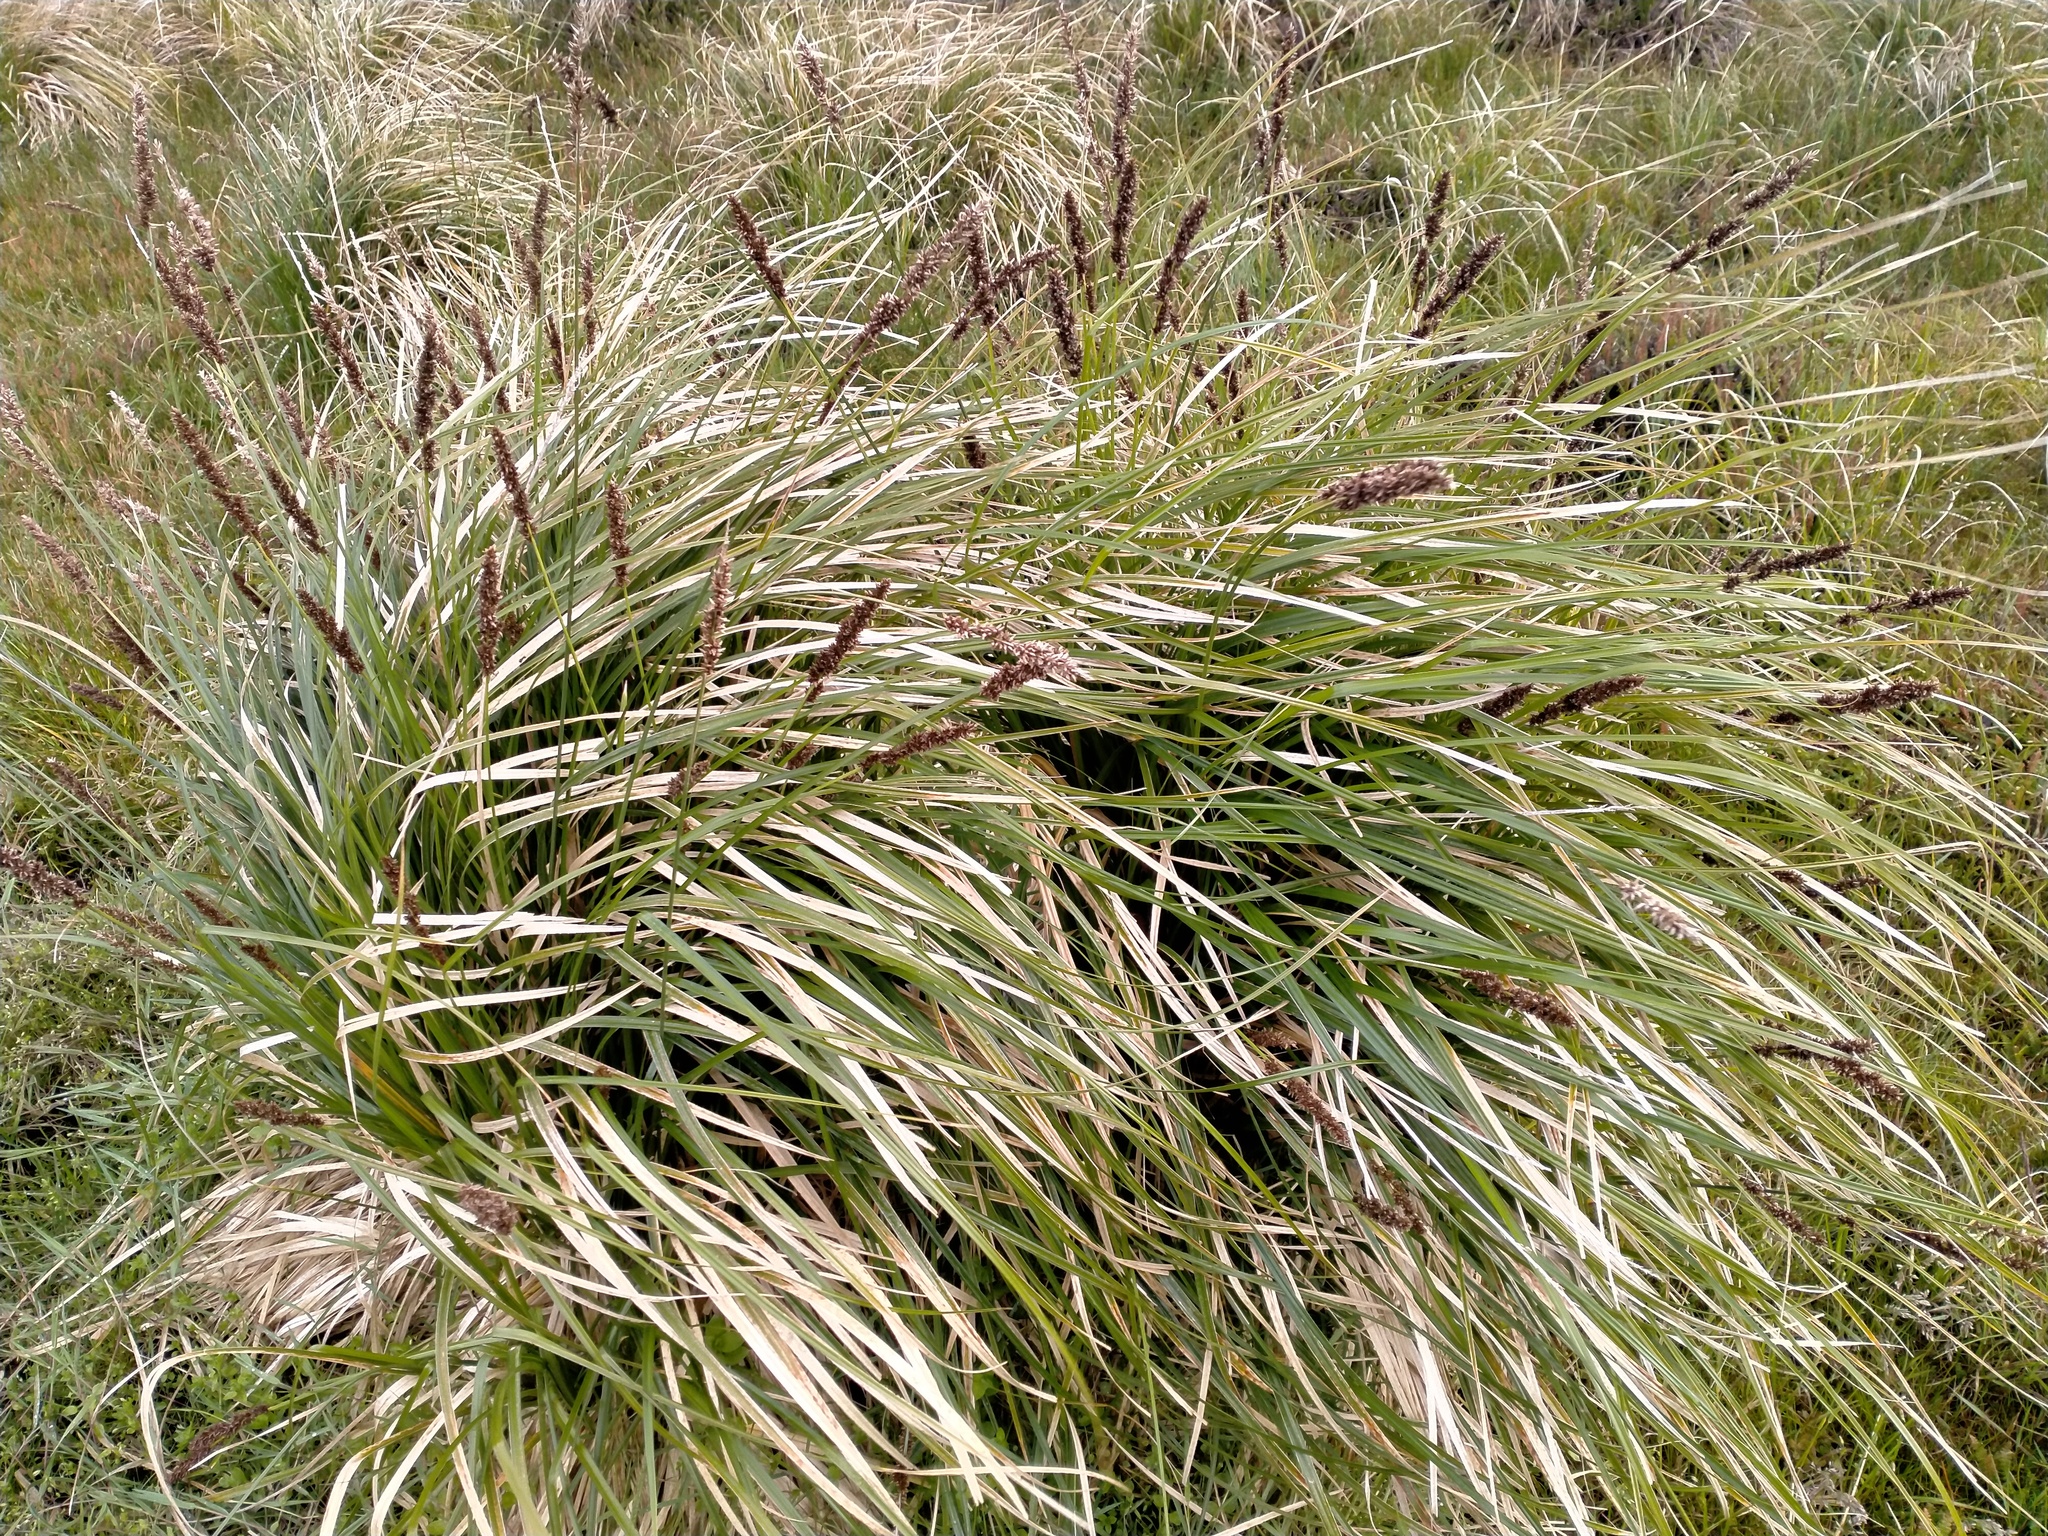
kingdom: Plantae
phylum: Tracheophyta
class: Liliopsida
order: Poales
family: Cyperaceae
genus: Carex
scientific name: Carex appressa
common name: Tussock sedge
